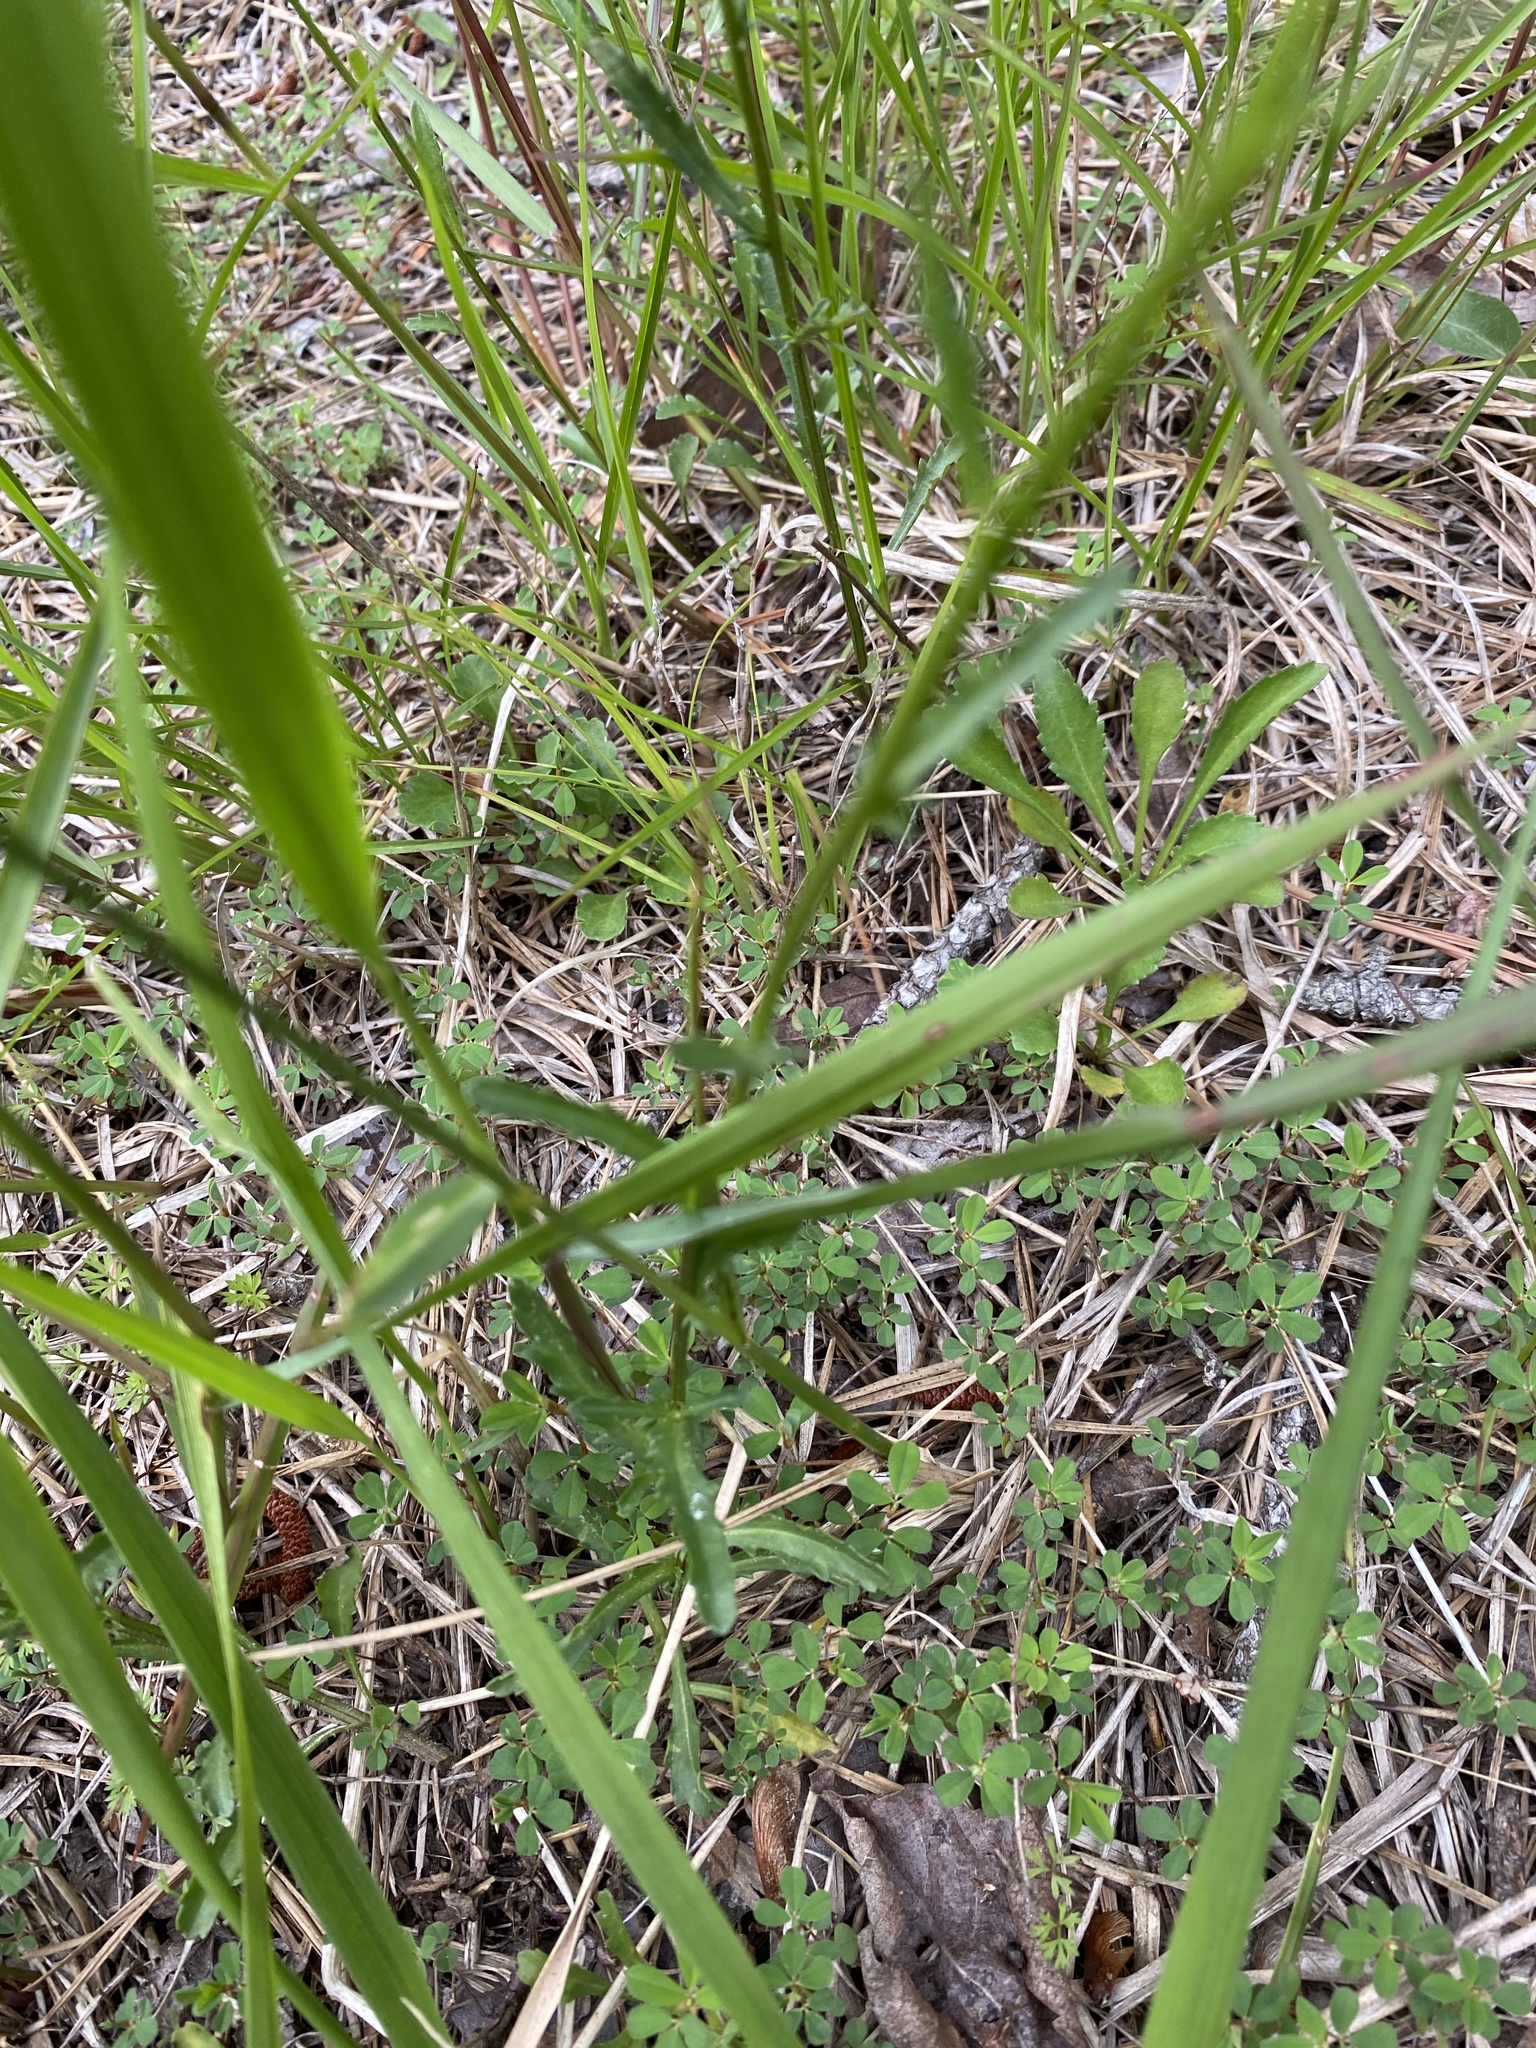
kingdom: Plantae
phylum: Tracheophyta
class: Magnoliopsida
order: Asterales
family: Asteraceae
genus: Leucanthemum
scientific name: Leucanthemum vulgare
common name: Oxeye daisy
